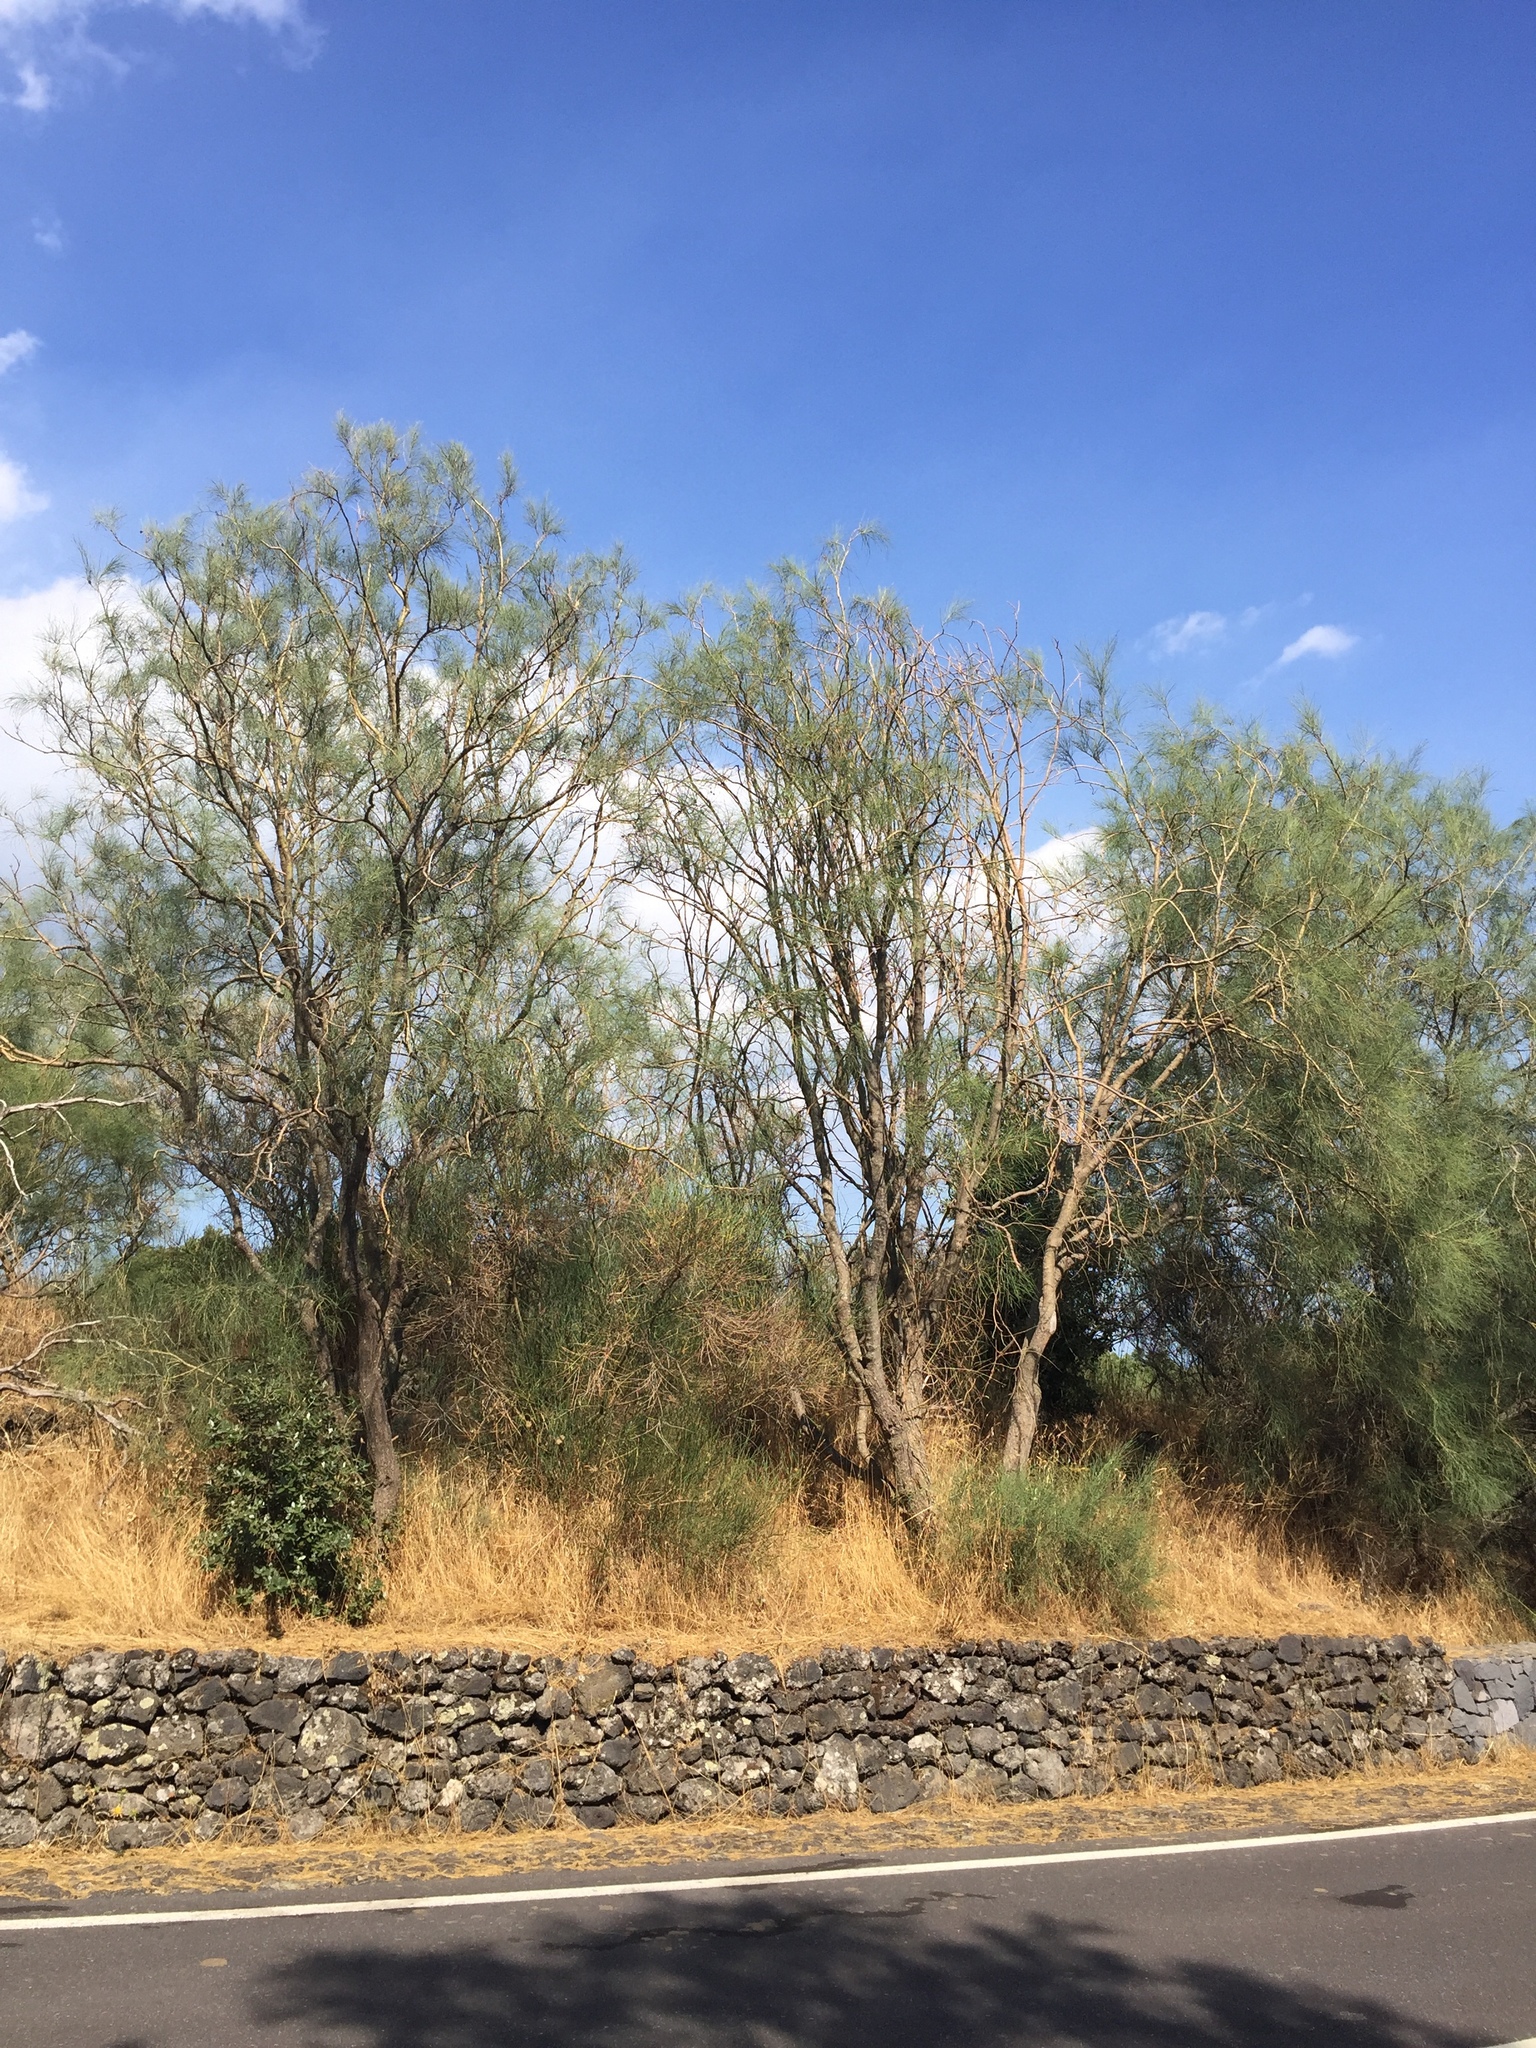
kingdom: Plantae
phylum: Tracheophyta
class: Magnoliopsida
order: Fabales
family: Fabaceae
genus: Genista
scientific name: Genista aetnensis
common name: Mount etna broom
